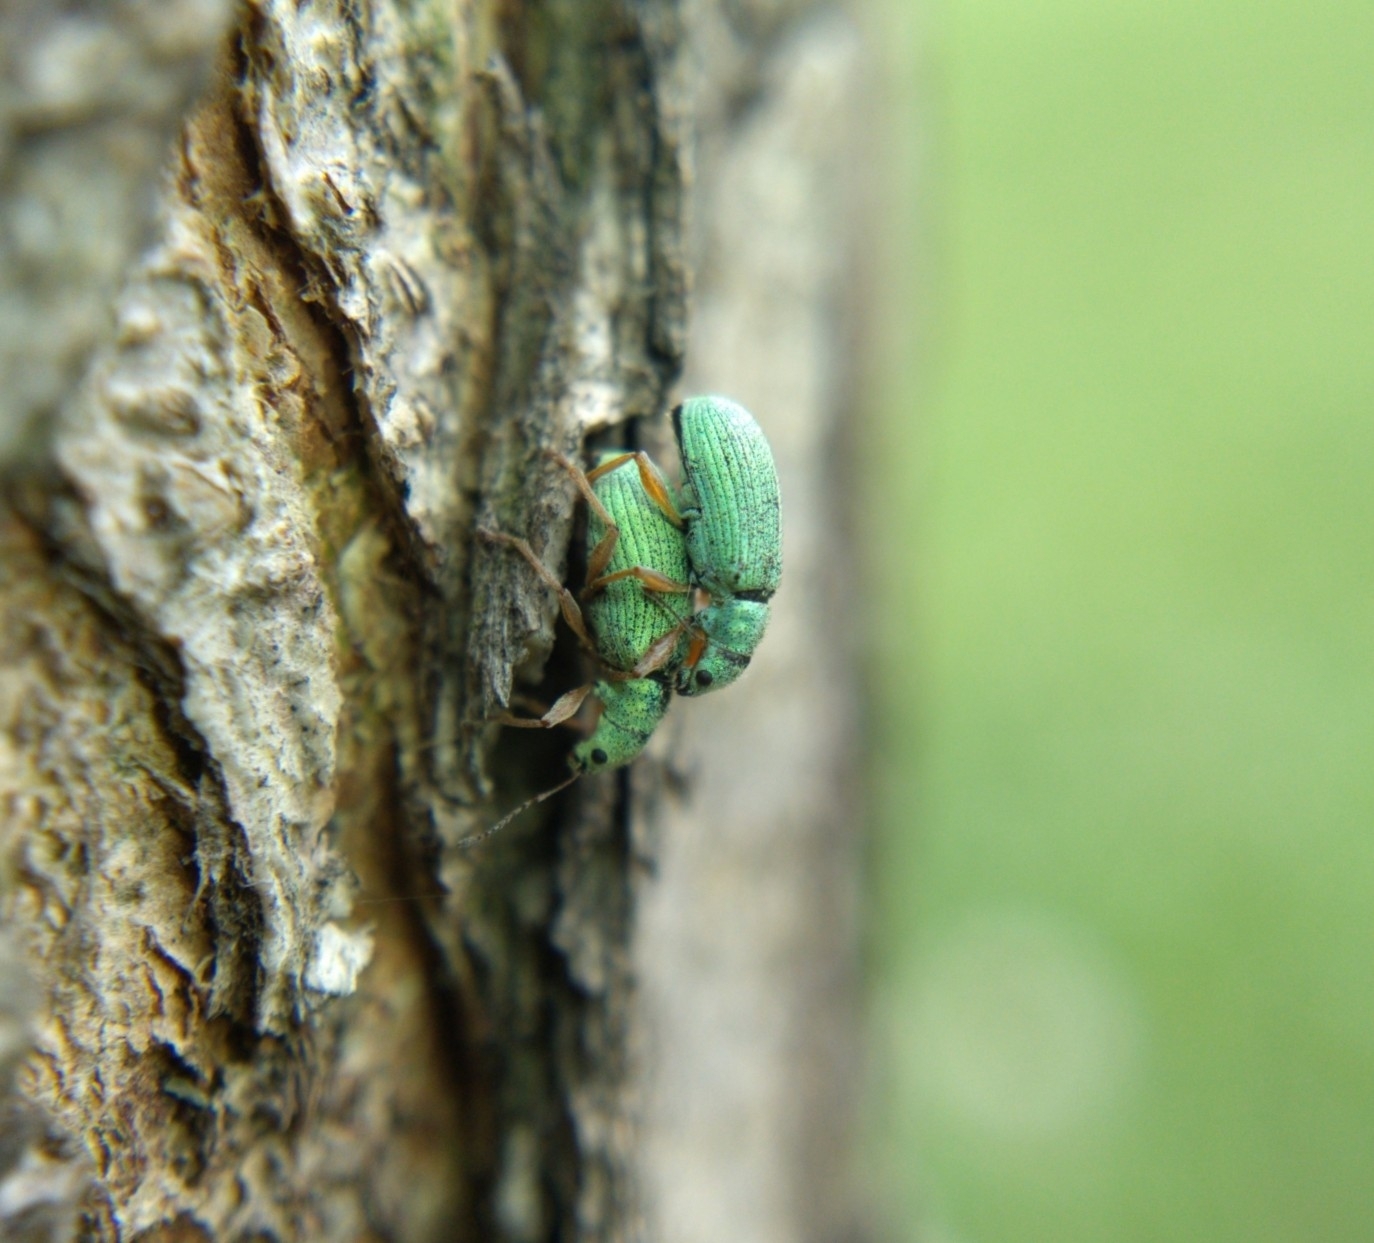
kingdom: Animalia
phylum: Arthropoda
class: Insecta
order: Coleoptera
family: Curculionidae
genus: Polydrusus
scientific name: Polydrusus impressifrons
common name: Weevil
